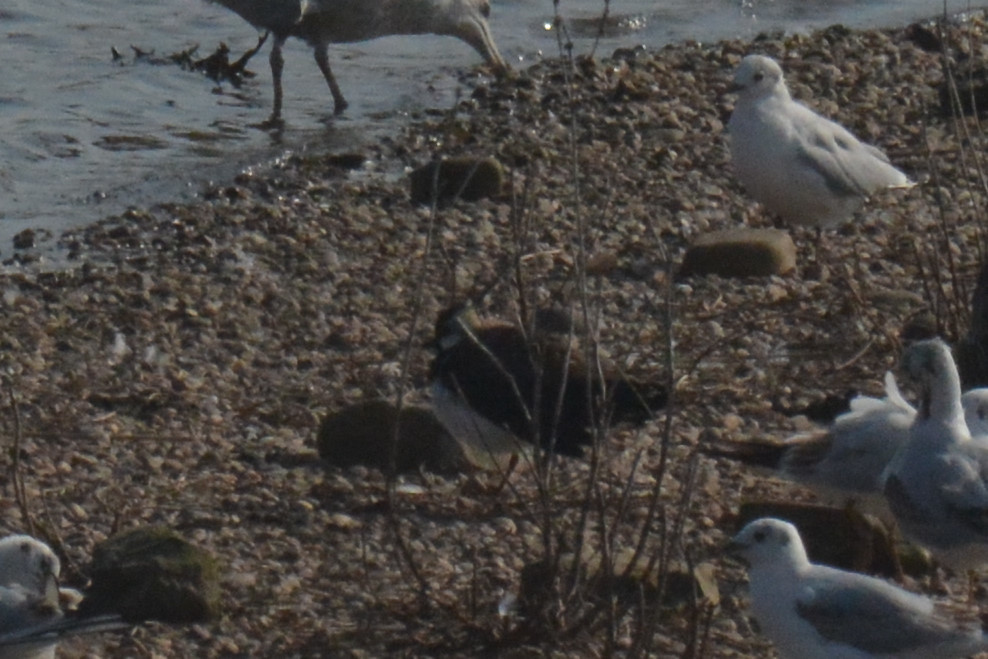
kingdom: Animalia
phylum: Chordata
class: Aves
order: Charadriiformes
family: Charadriidae
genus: Vanellus
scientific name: Vanellus vanellus
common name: Northern lapwing
